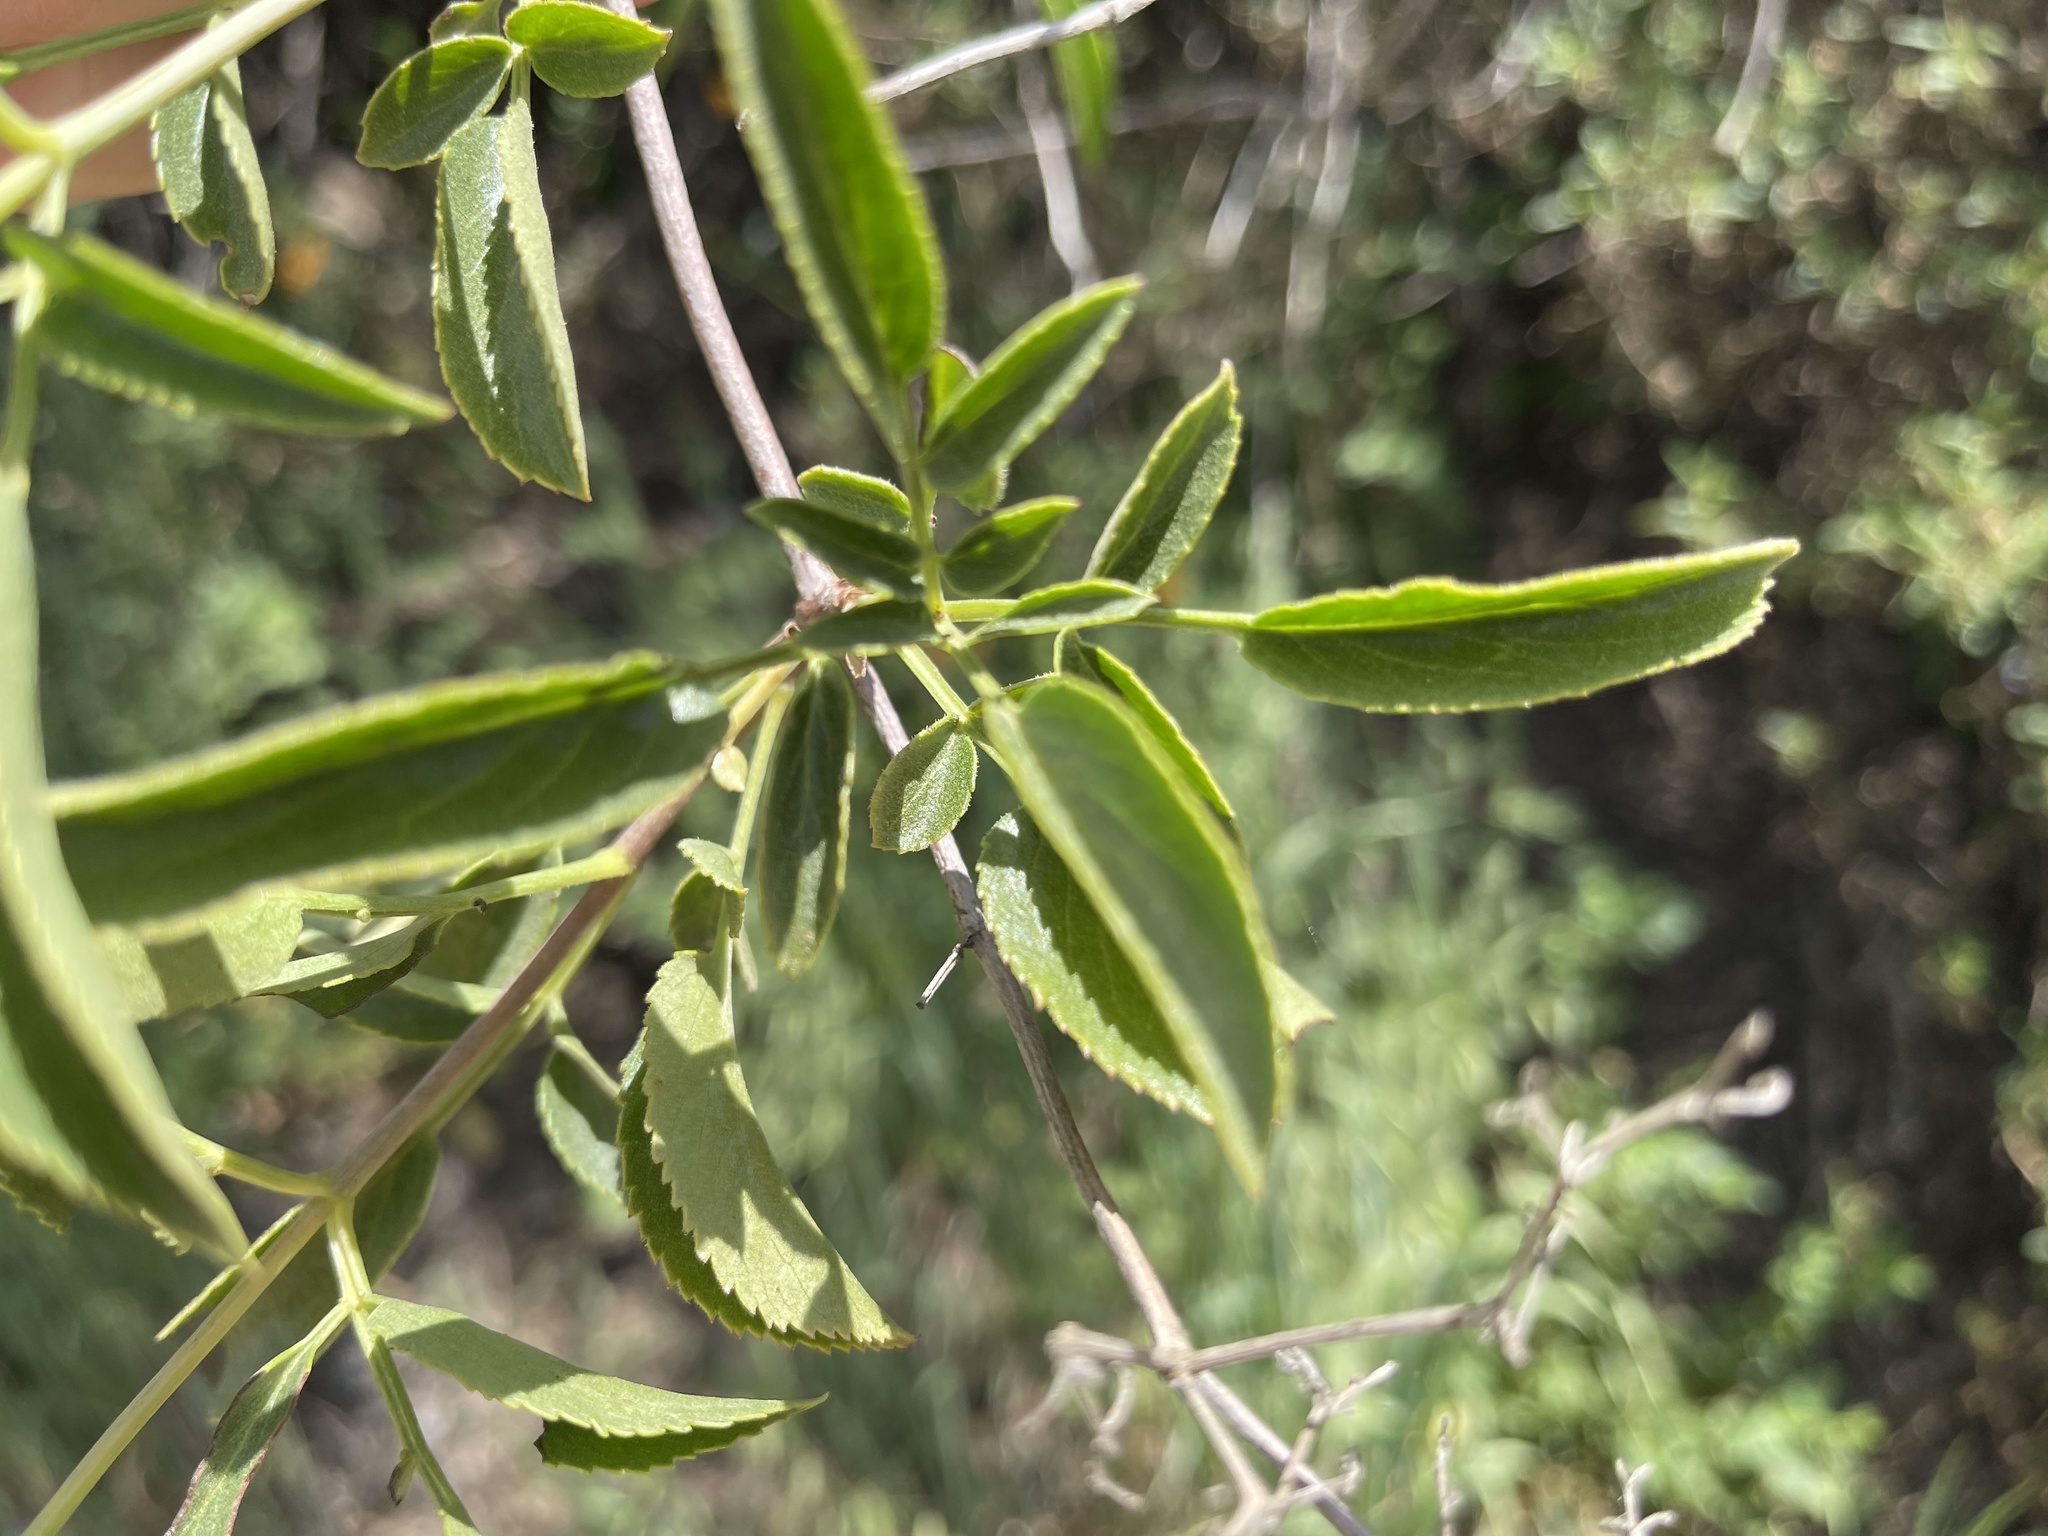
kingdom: Plantae
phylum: Tracheophyta
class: Magnoliopsida
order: Dipsacales
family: Viburnaceae
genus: Sambucus
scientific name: Sambucus cerulea
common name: Blue elder
